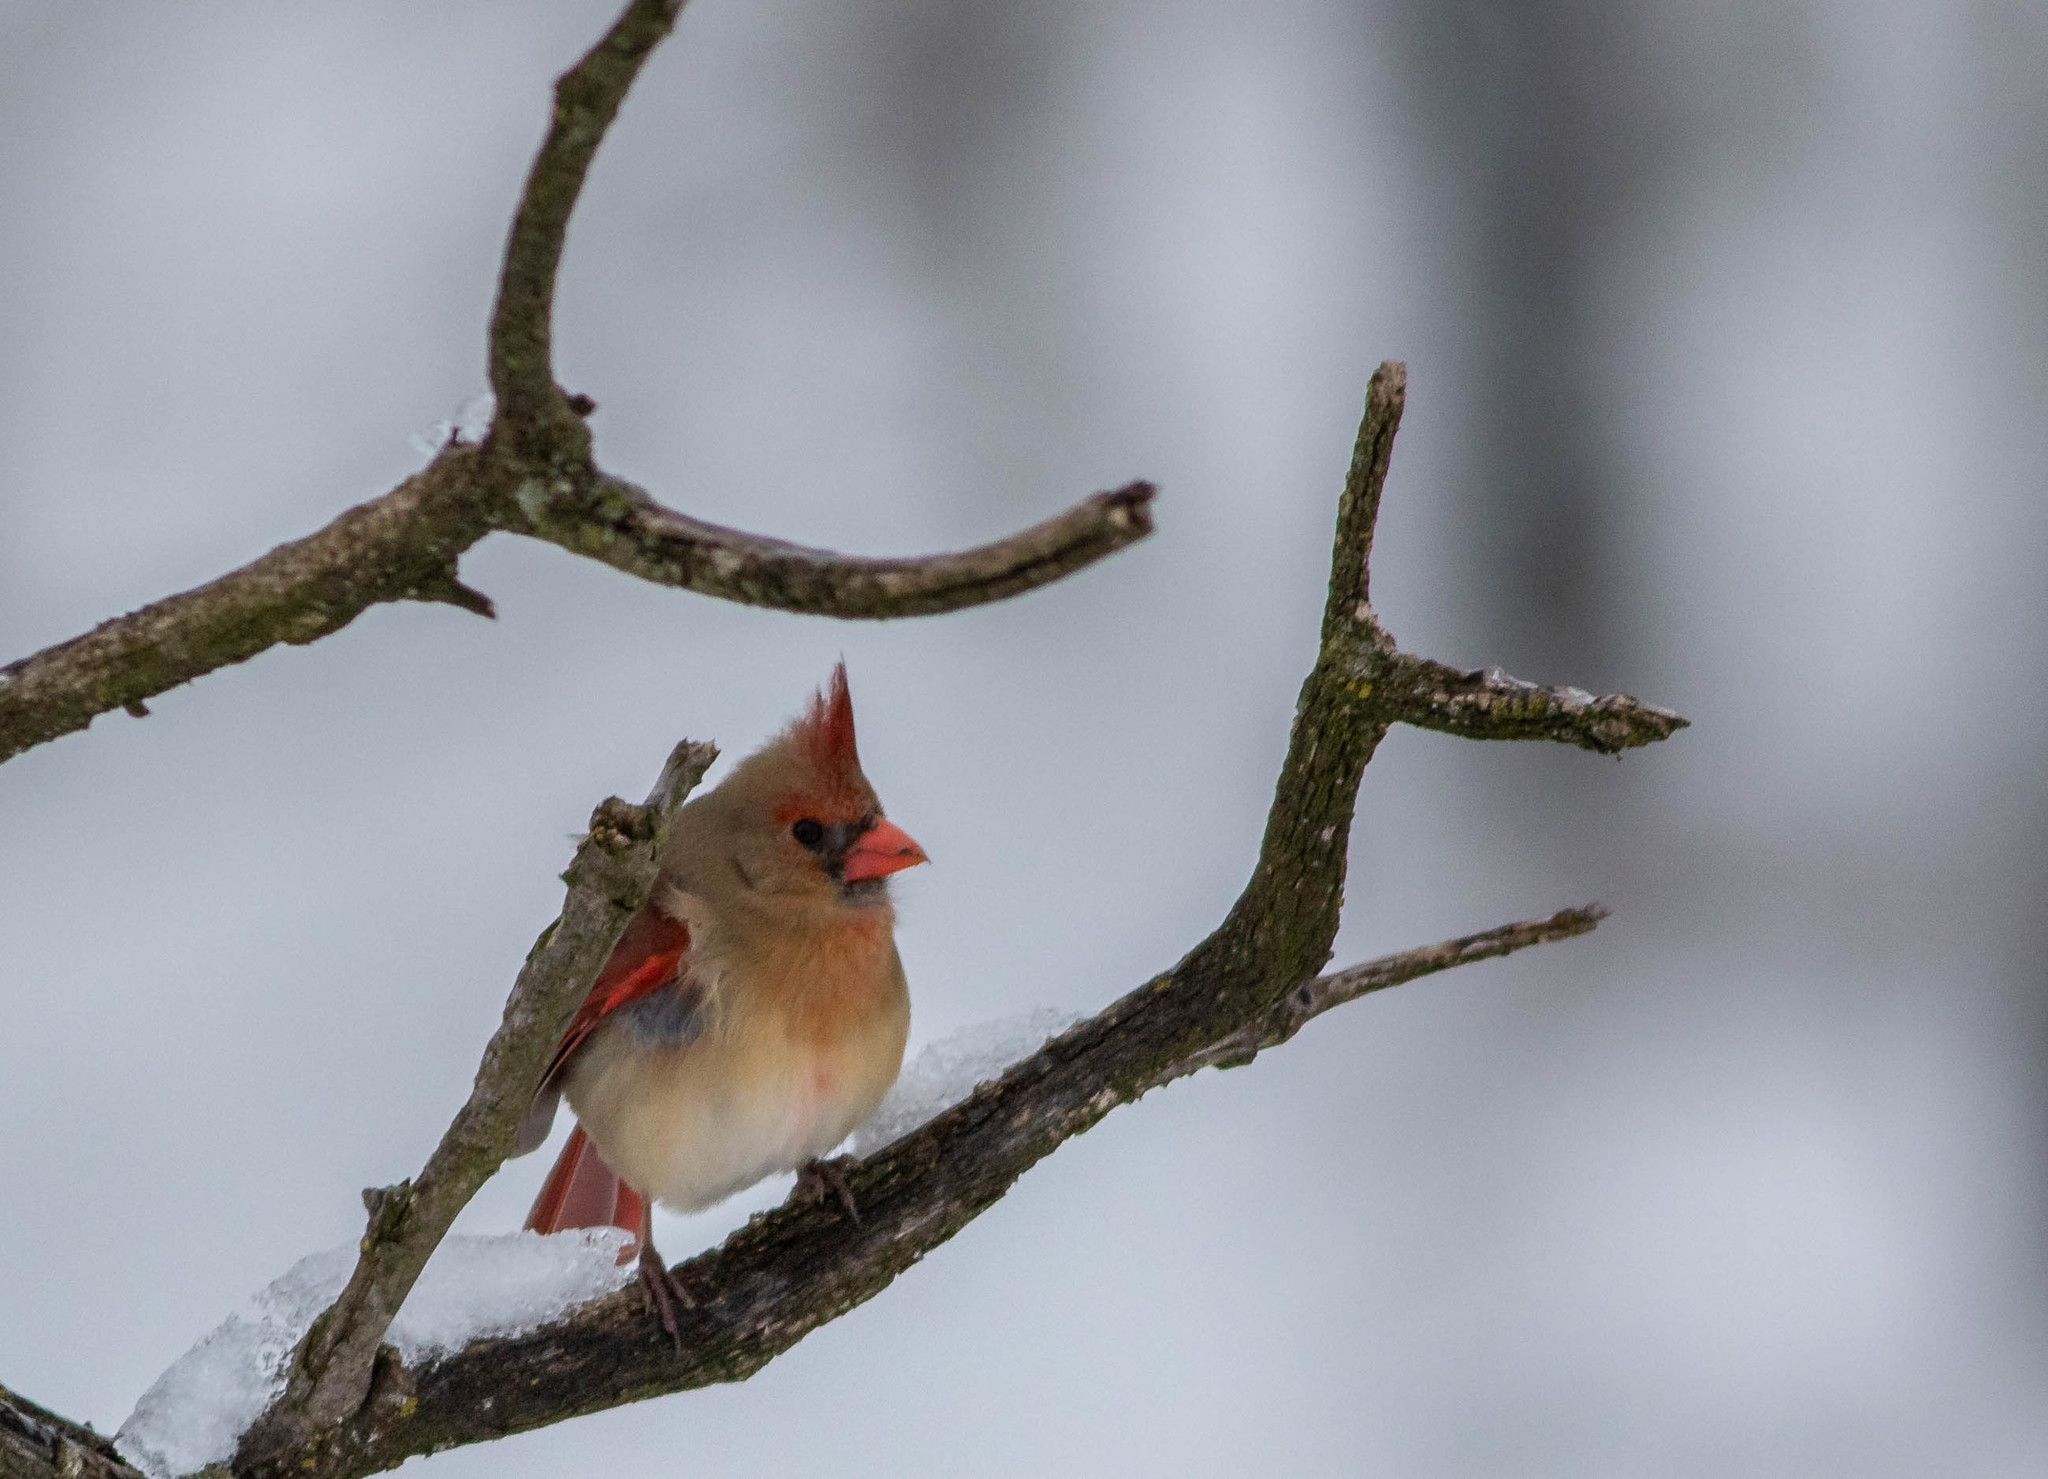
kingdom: Animalia
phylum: Chordata
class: Aves
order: Passeriformes
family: Cardinalidae
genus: Cardinalis
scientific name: Cardinalis cardinalis
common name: Northern cardinal
